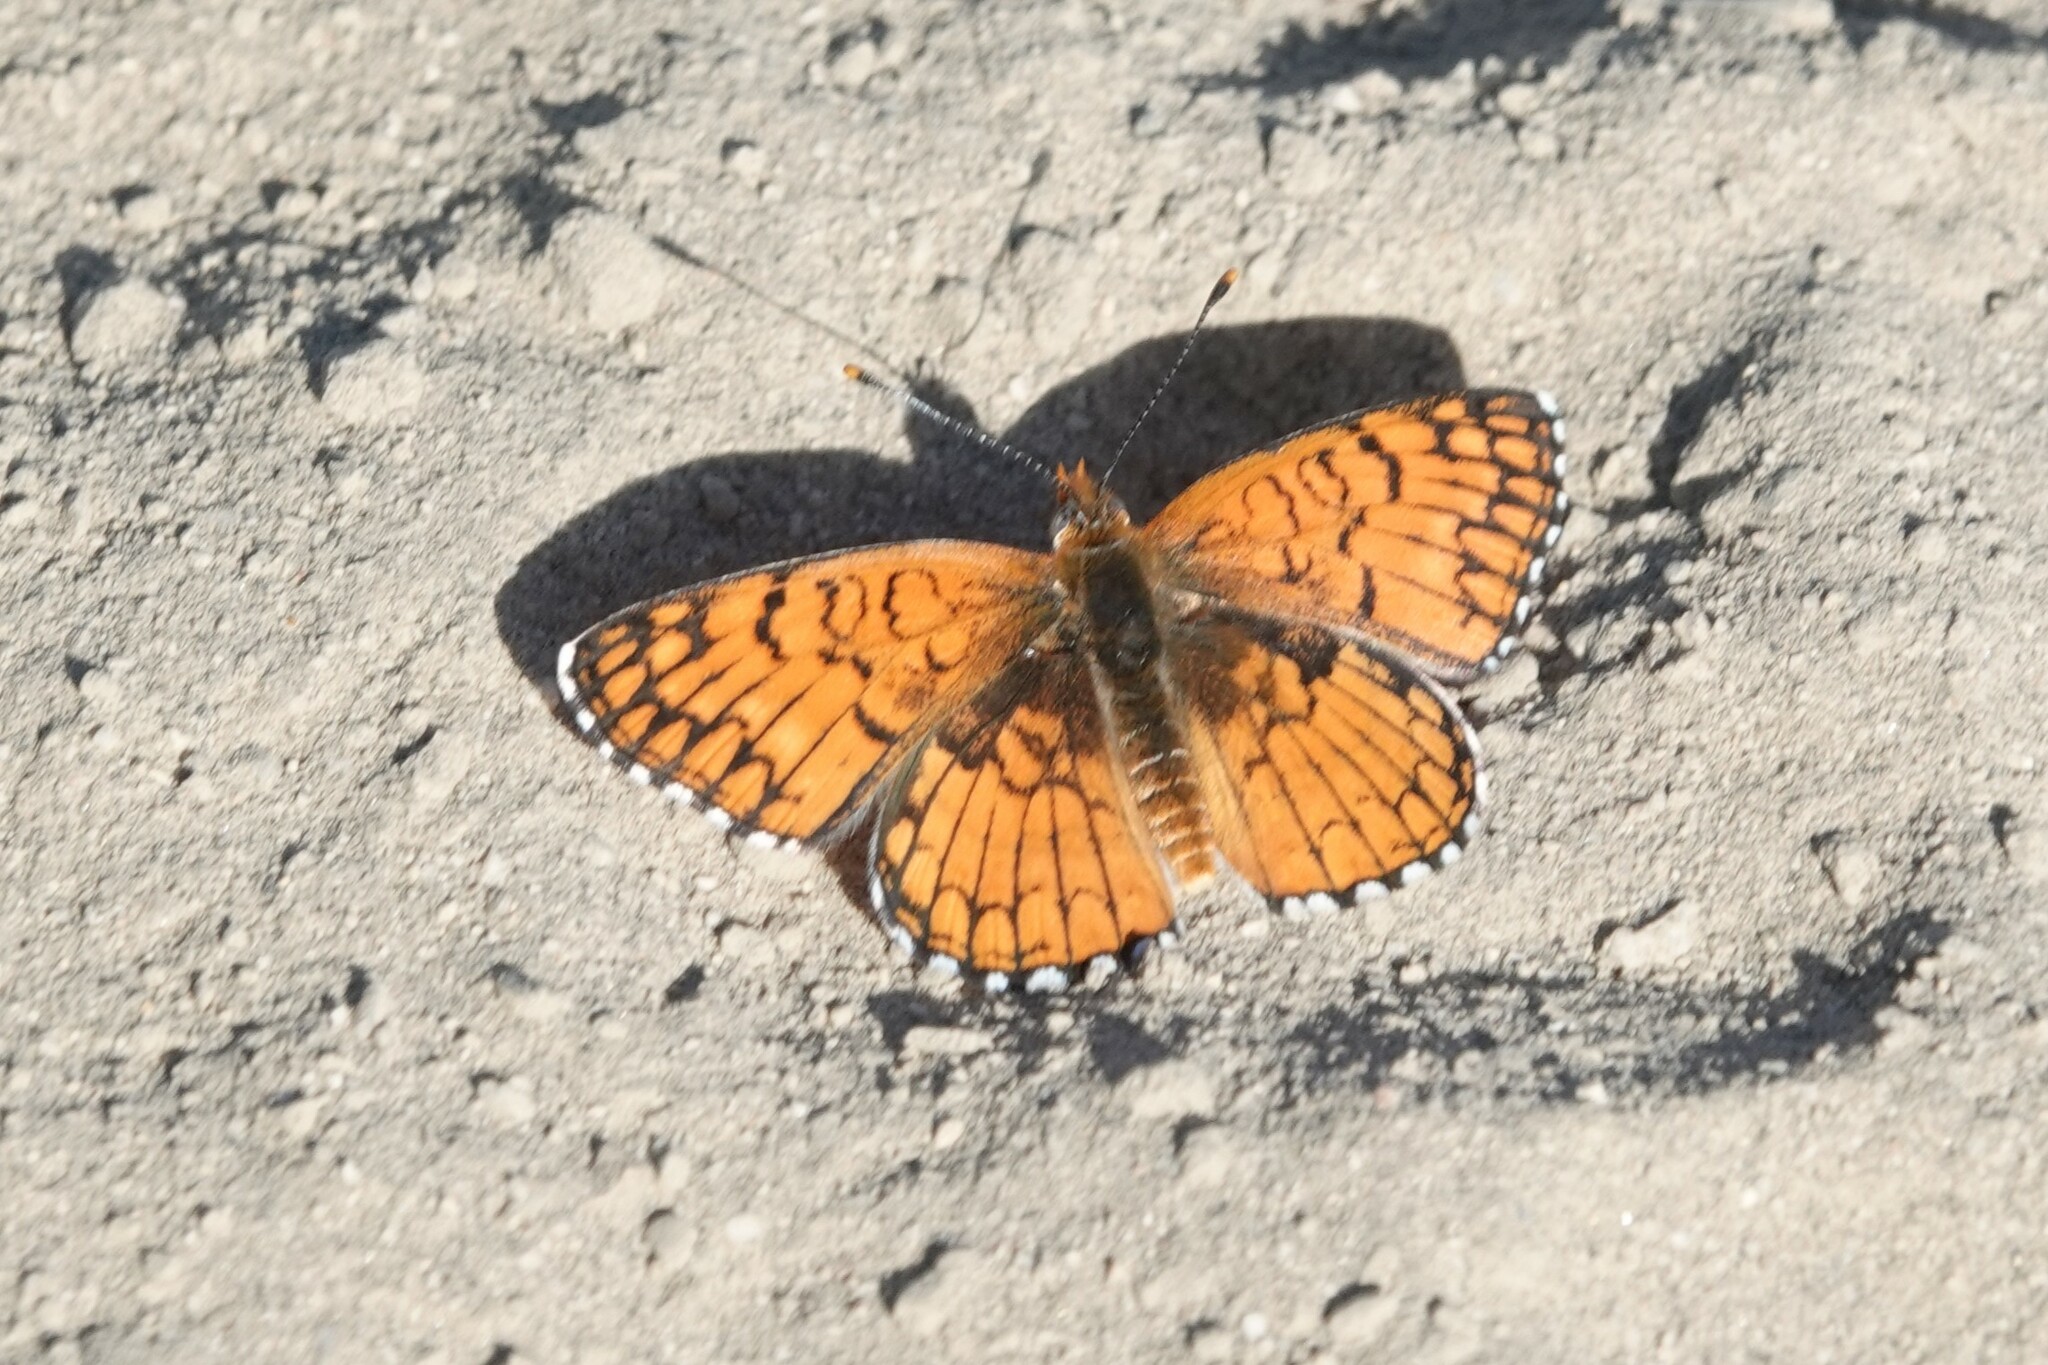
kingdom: Animalia
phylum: Arthropoda
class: Insecta
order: Lepidoptera
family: Nymphalidae
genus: Chlosyne
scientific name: Chlosyne acastus
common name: Sagebrush checkerspot
